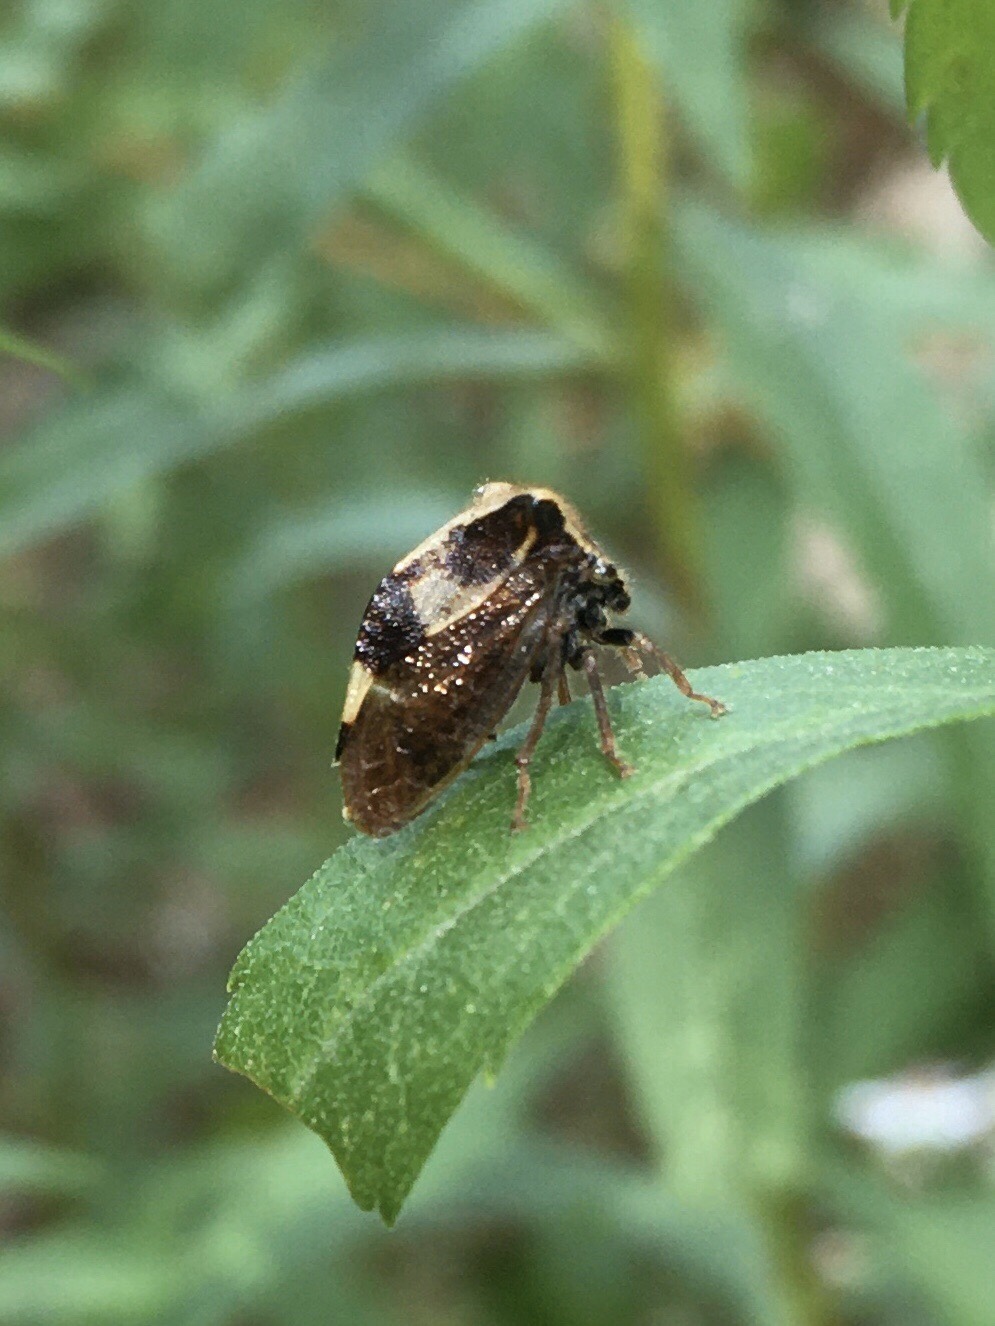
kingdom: Animalia
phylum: Arthropoda
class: Insecta
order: Hemiptera
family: Membracidae
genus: Stictocephala
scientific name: Stictocephala diceros
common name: Two-horned treehopper
